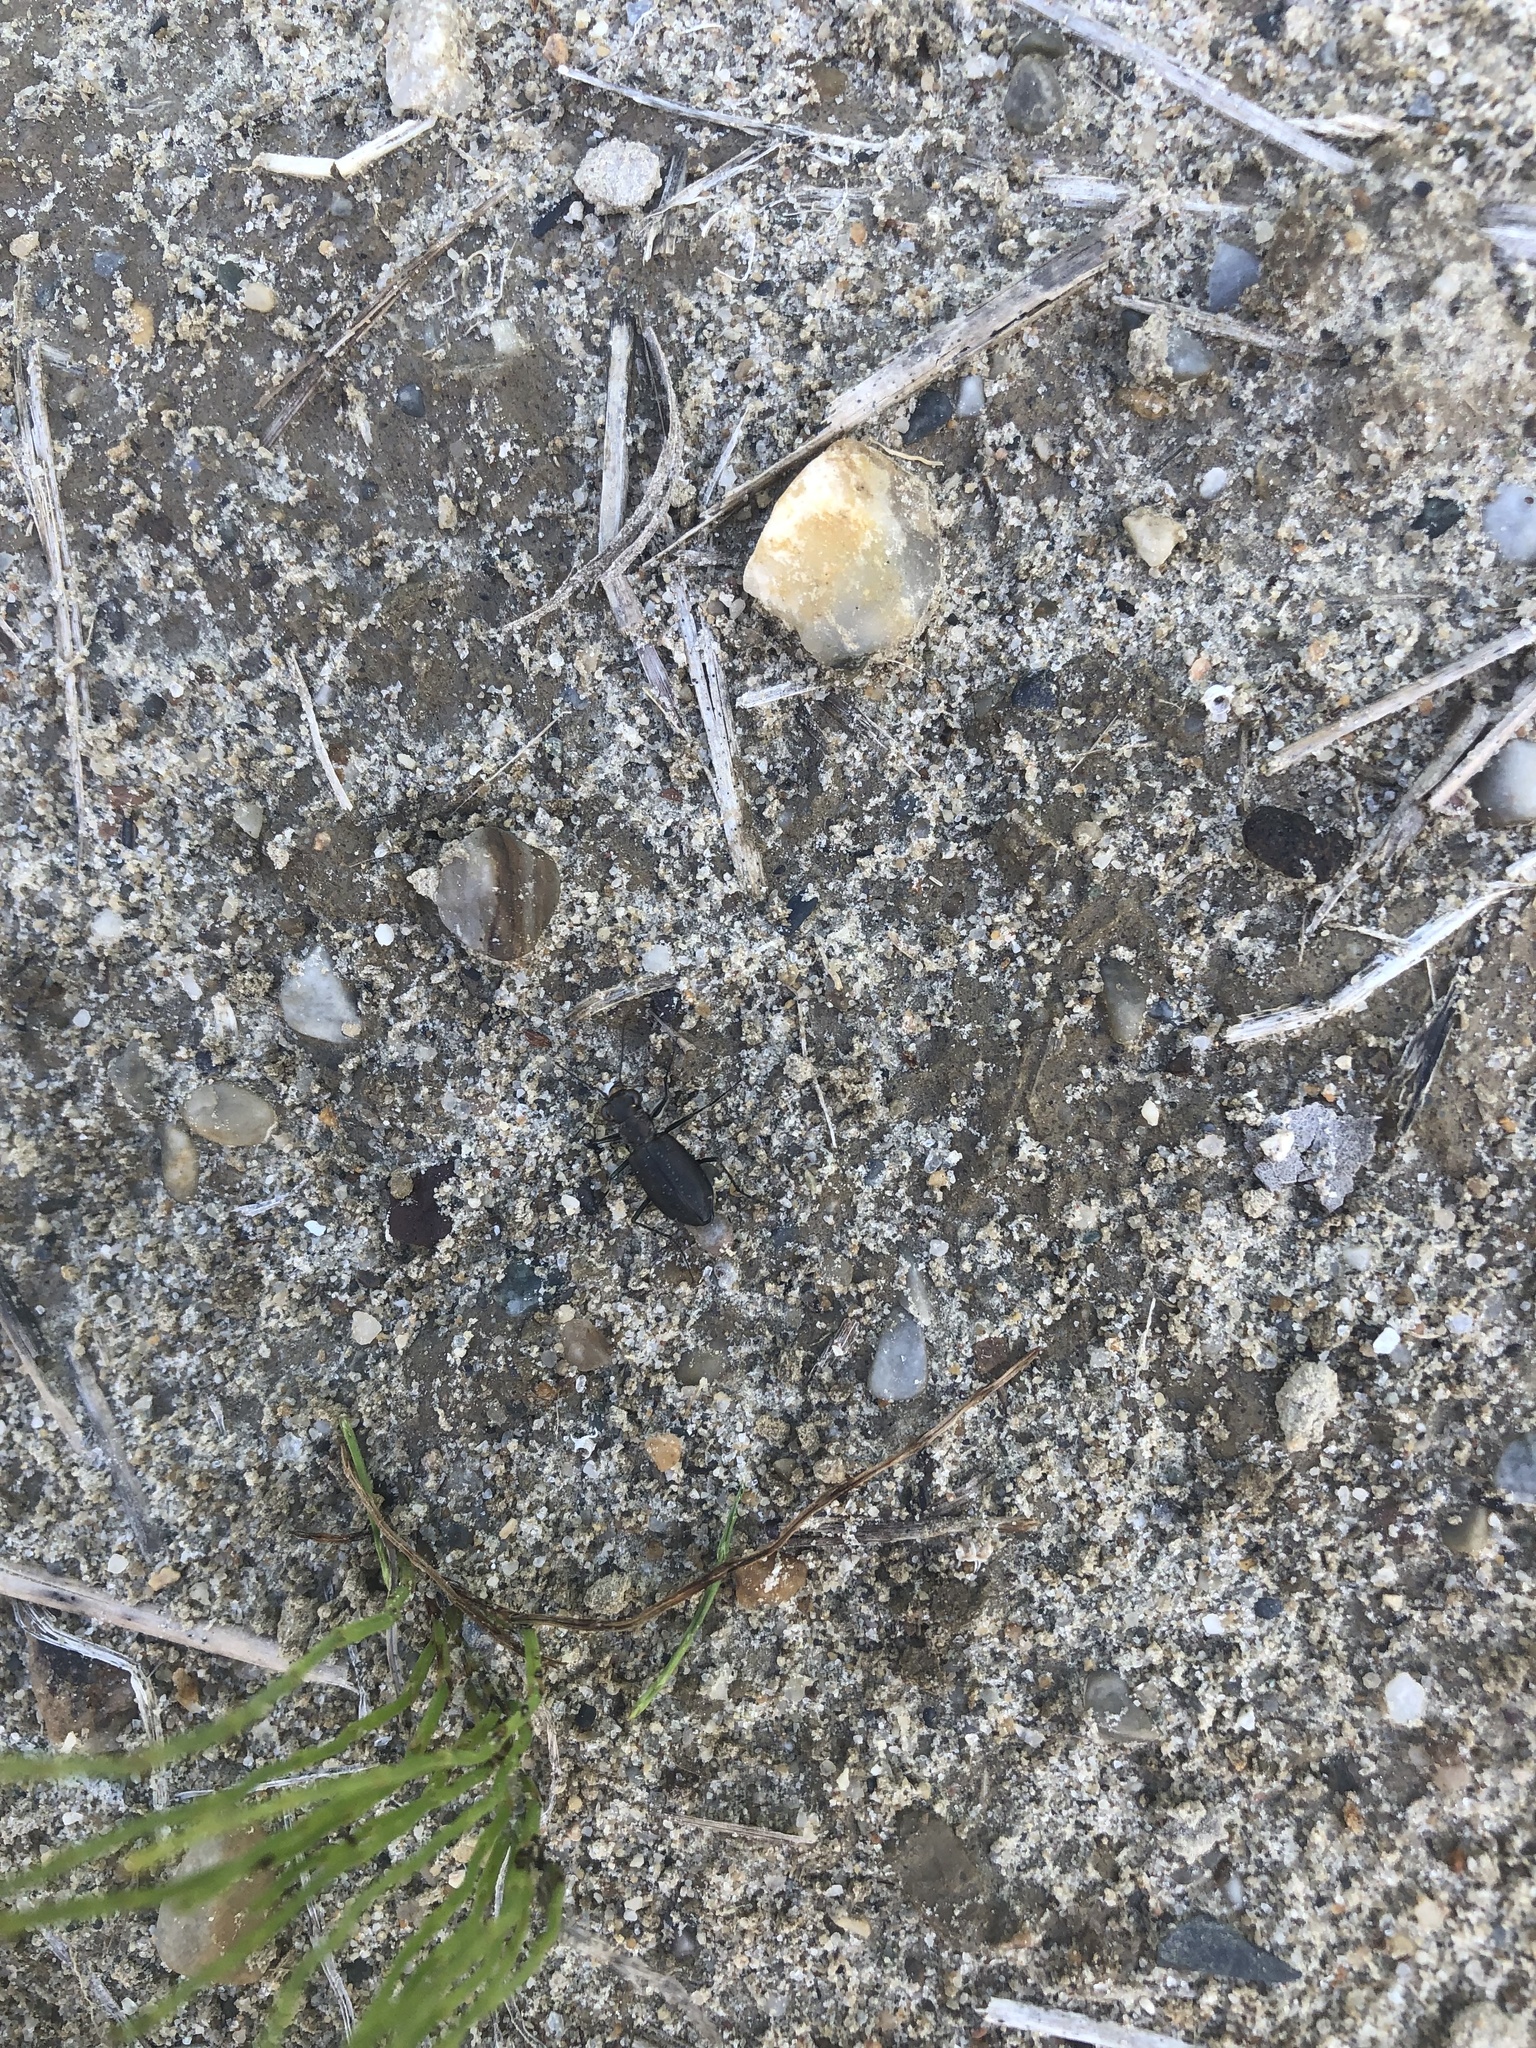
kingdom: Animalia
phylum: Arthropoda
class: Insecta
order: Coleoptera
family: Carabidae
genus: Cicindela
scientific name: Cicindela punctulata
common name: Punctured tiger beetle
